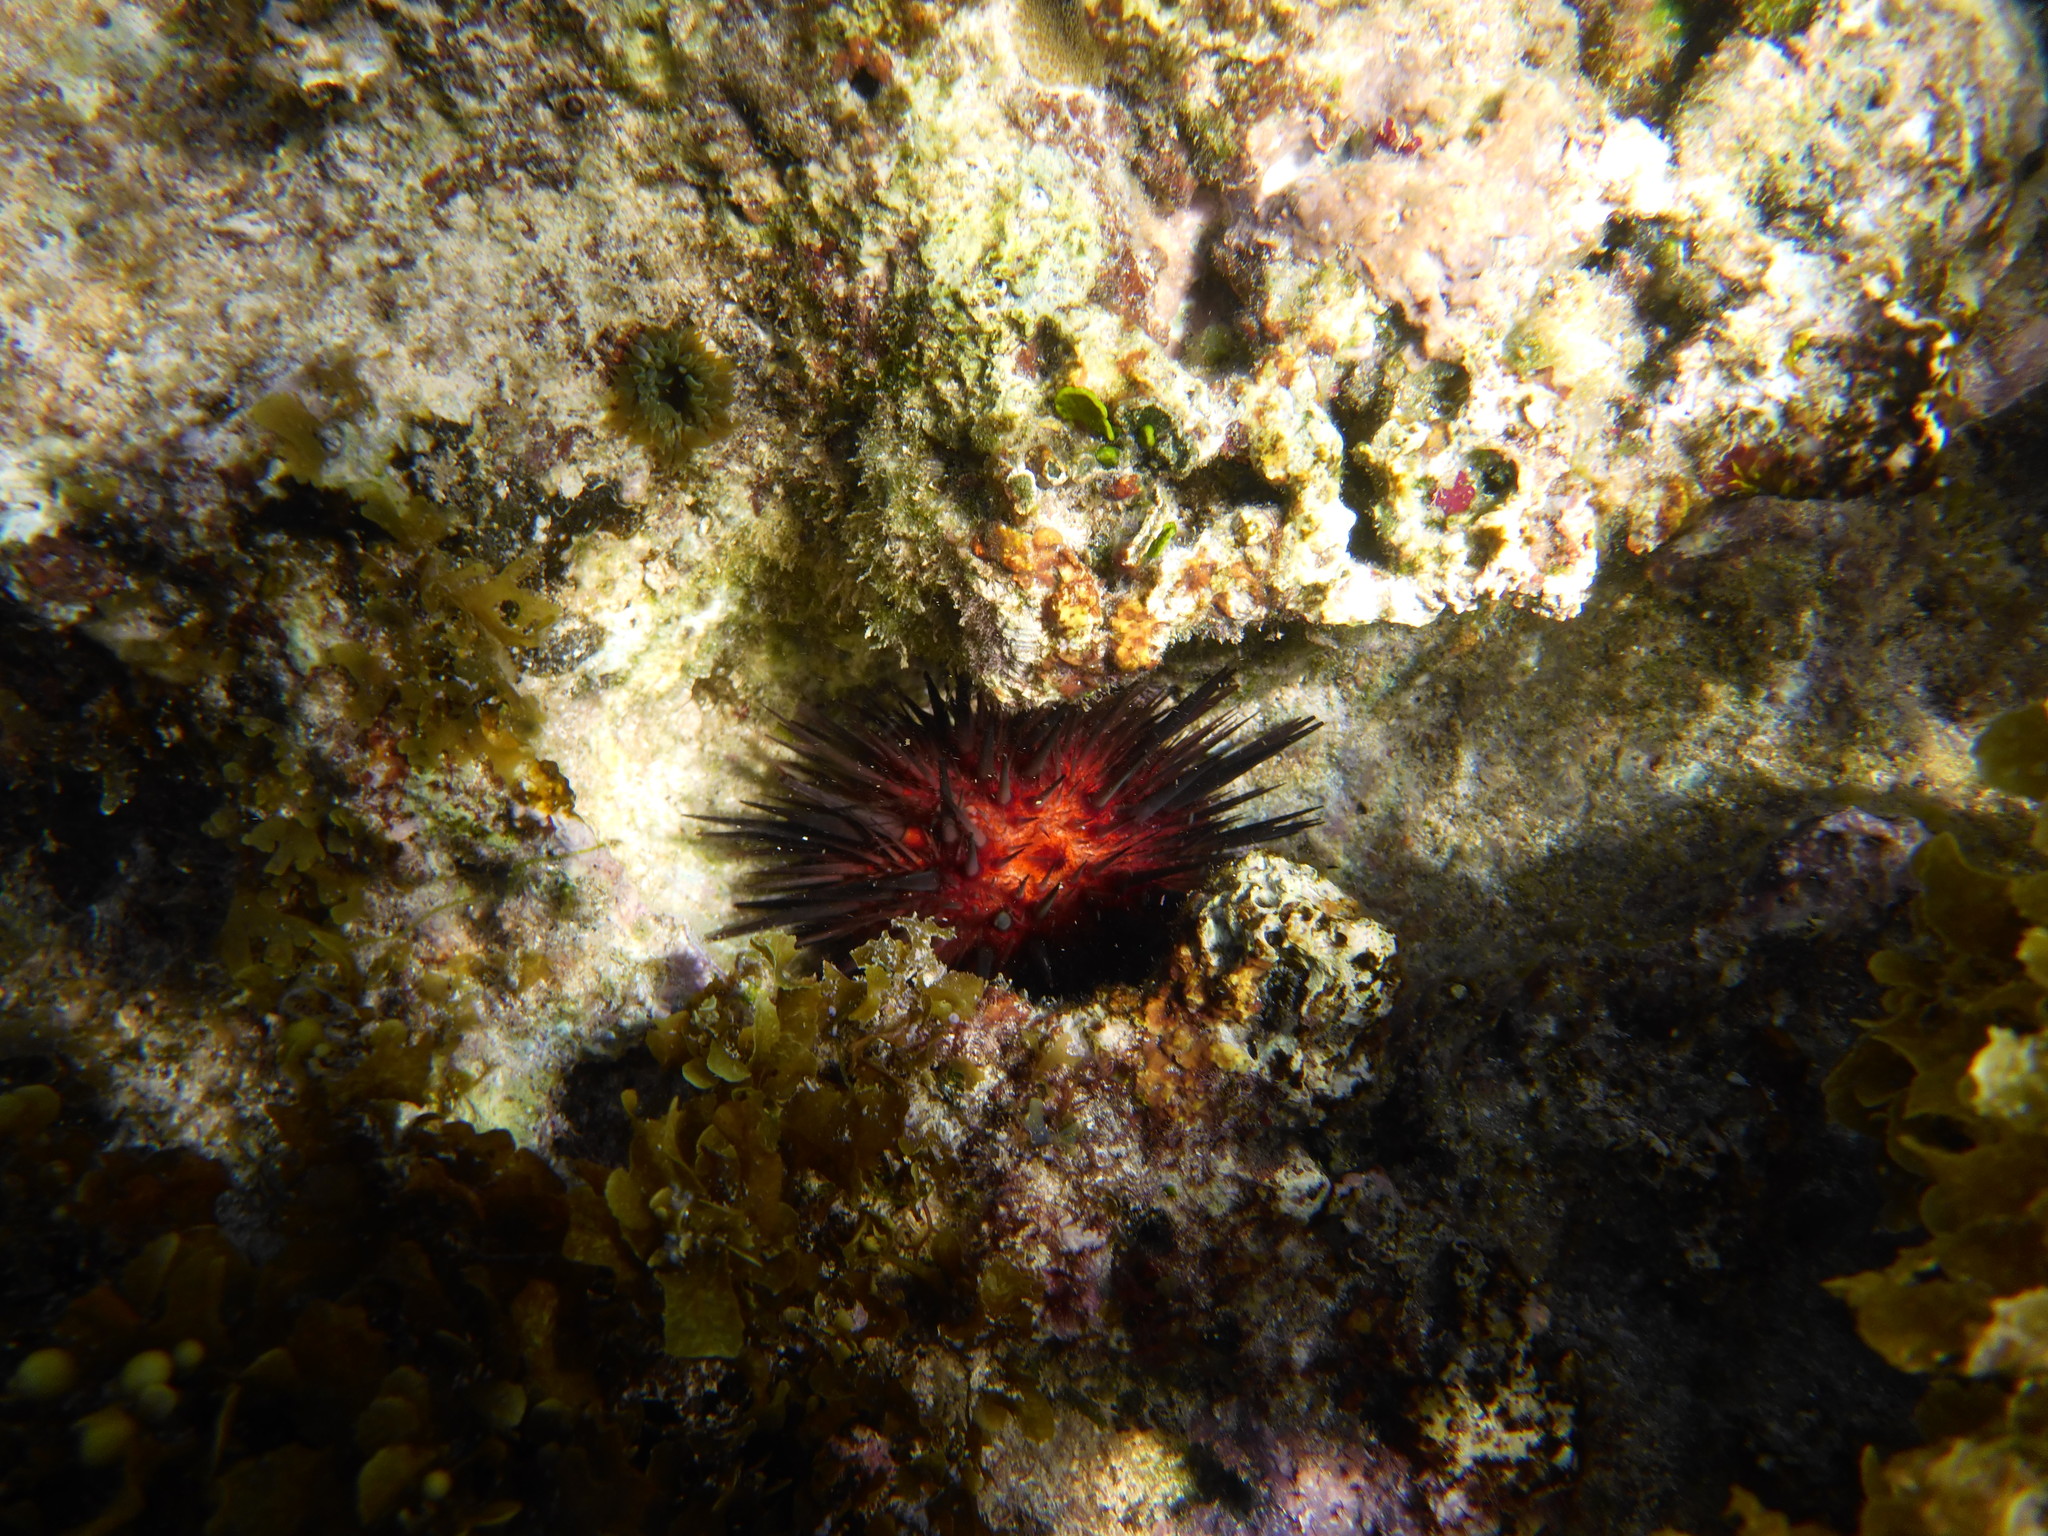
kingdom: Animalia
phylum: Echinodermata
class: Echinoidea
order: Camarodonta
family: Echinometridae
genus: Echinometra
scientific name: Echinometra lucunter
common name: Rock urchin
